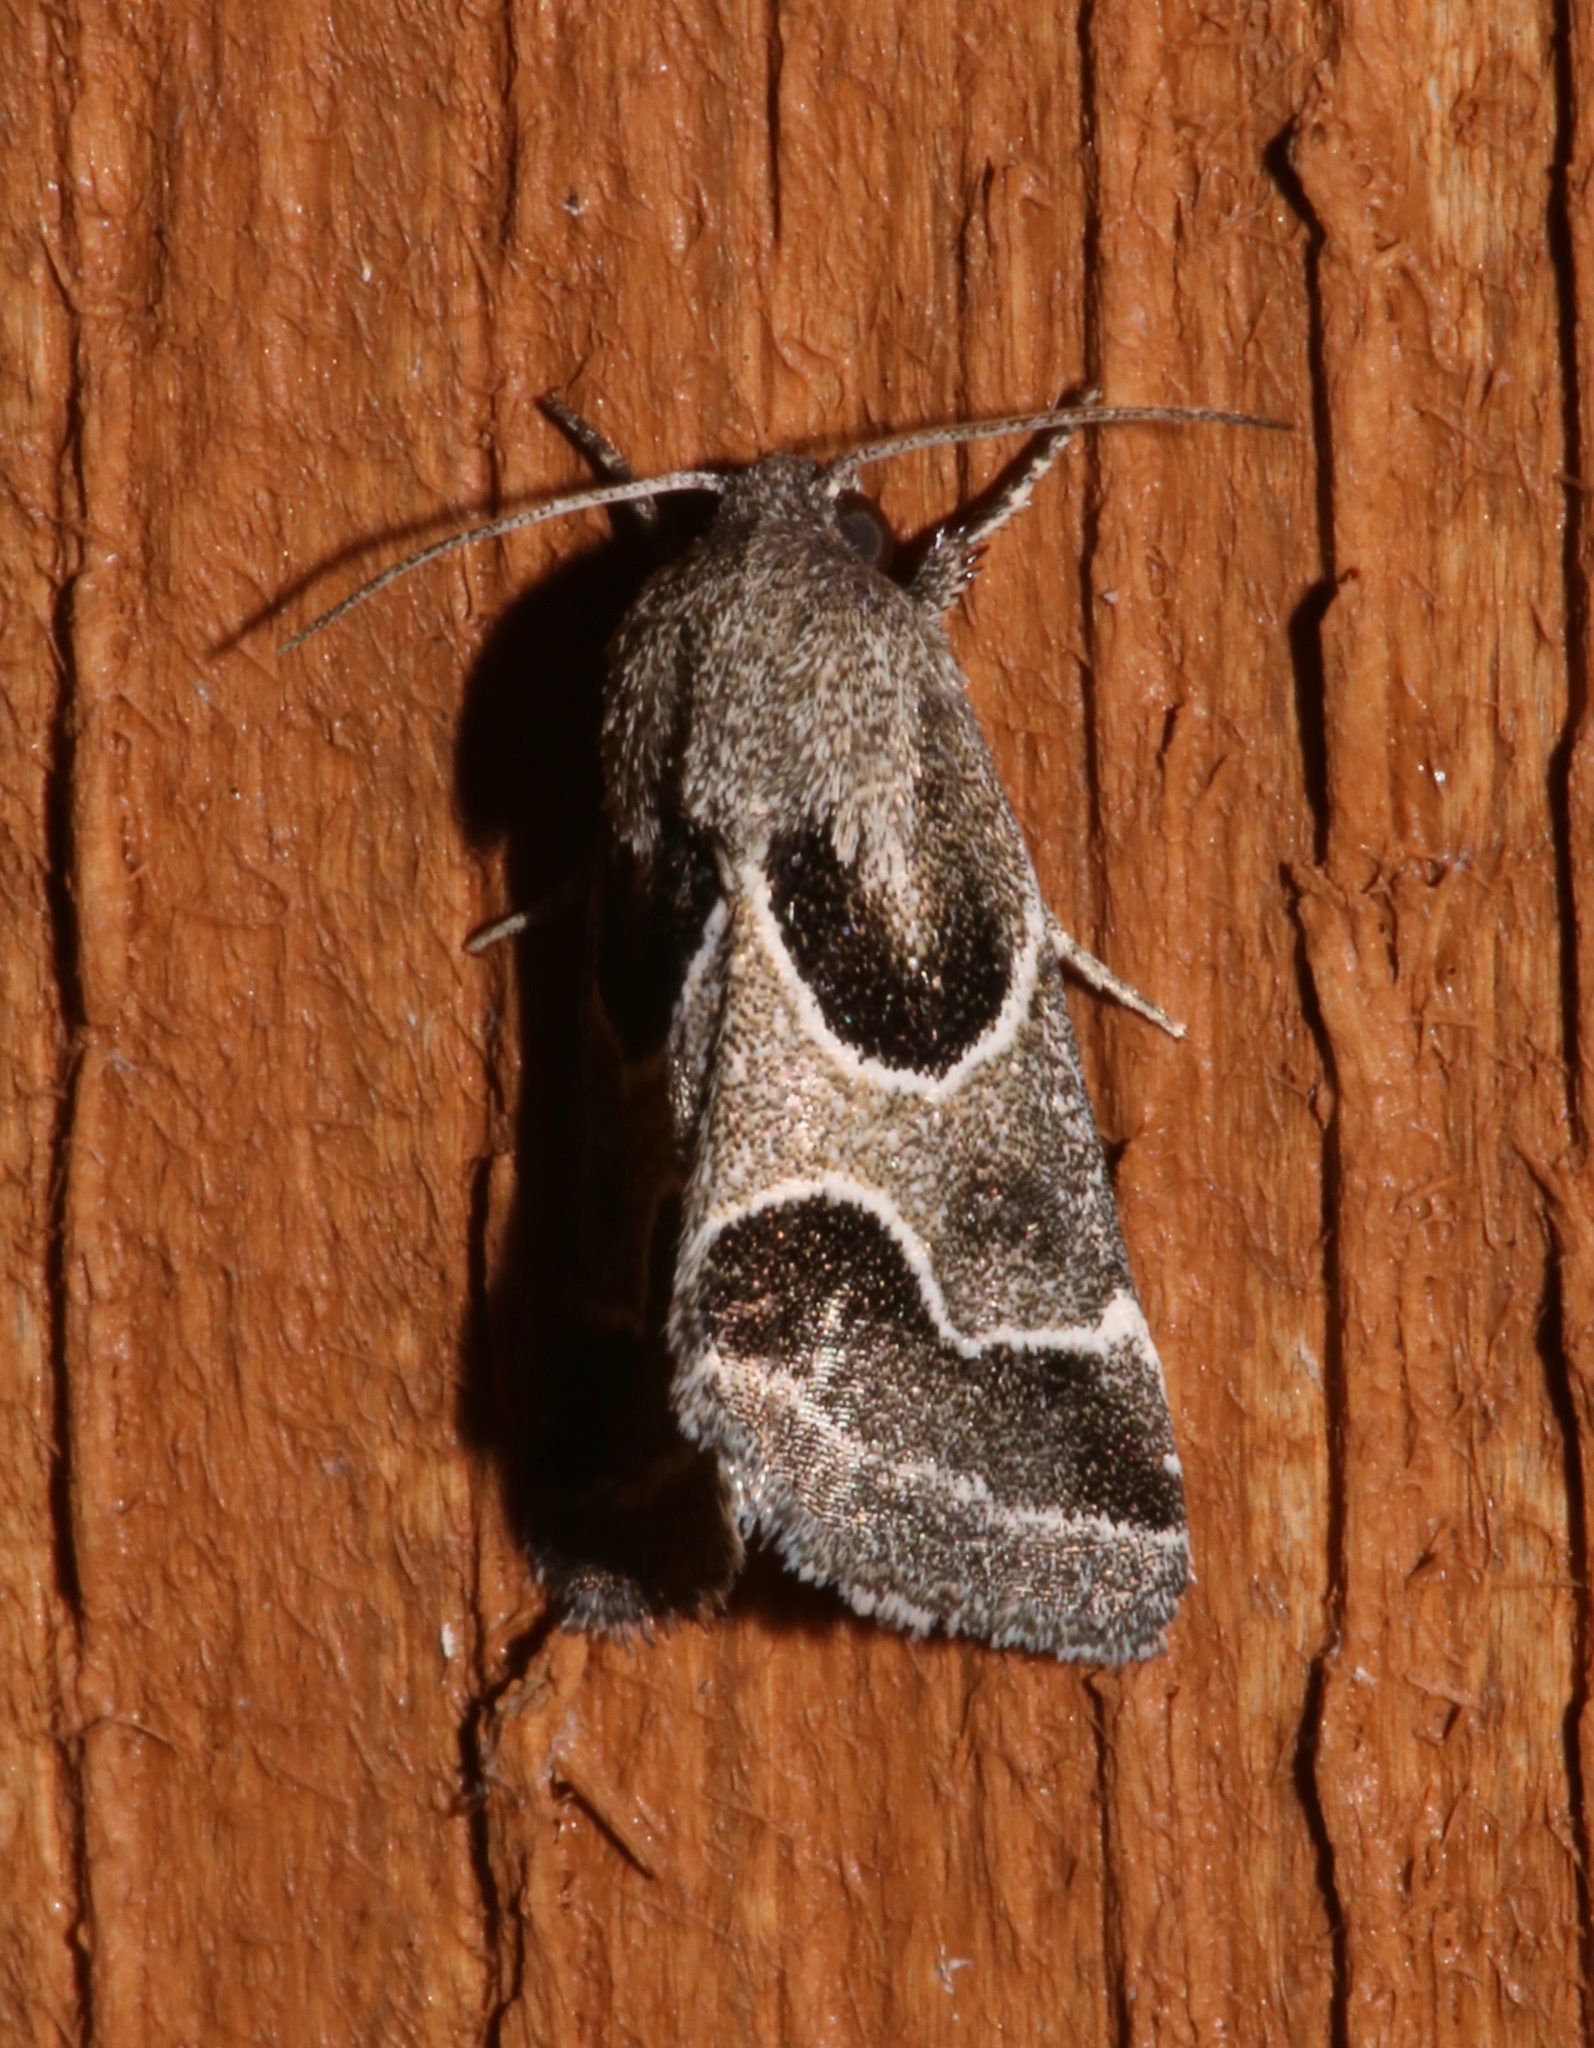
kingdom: Animalia
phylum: Arthropoda
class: Insecta
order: Lepidoptera
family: Noctuidae
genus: Schinia
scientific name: Schinia rivulosa
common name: Scarce meal-moth
